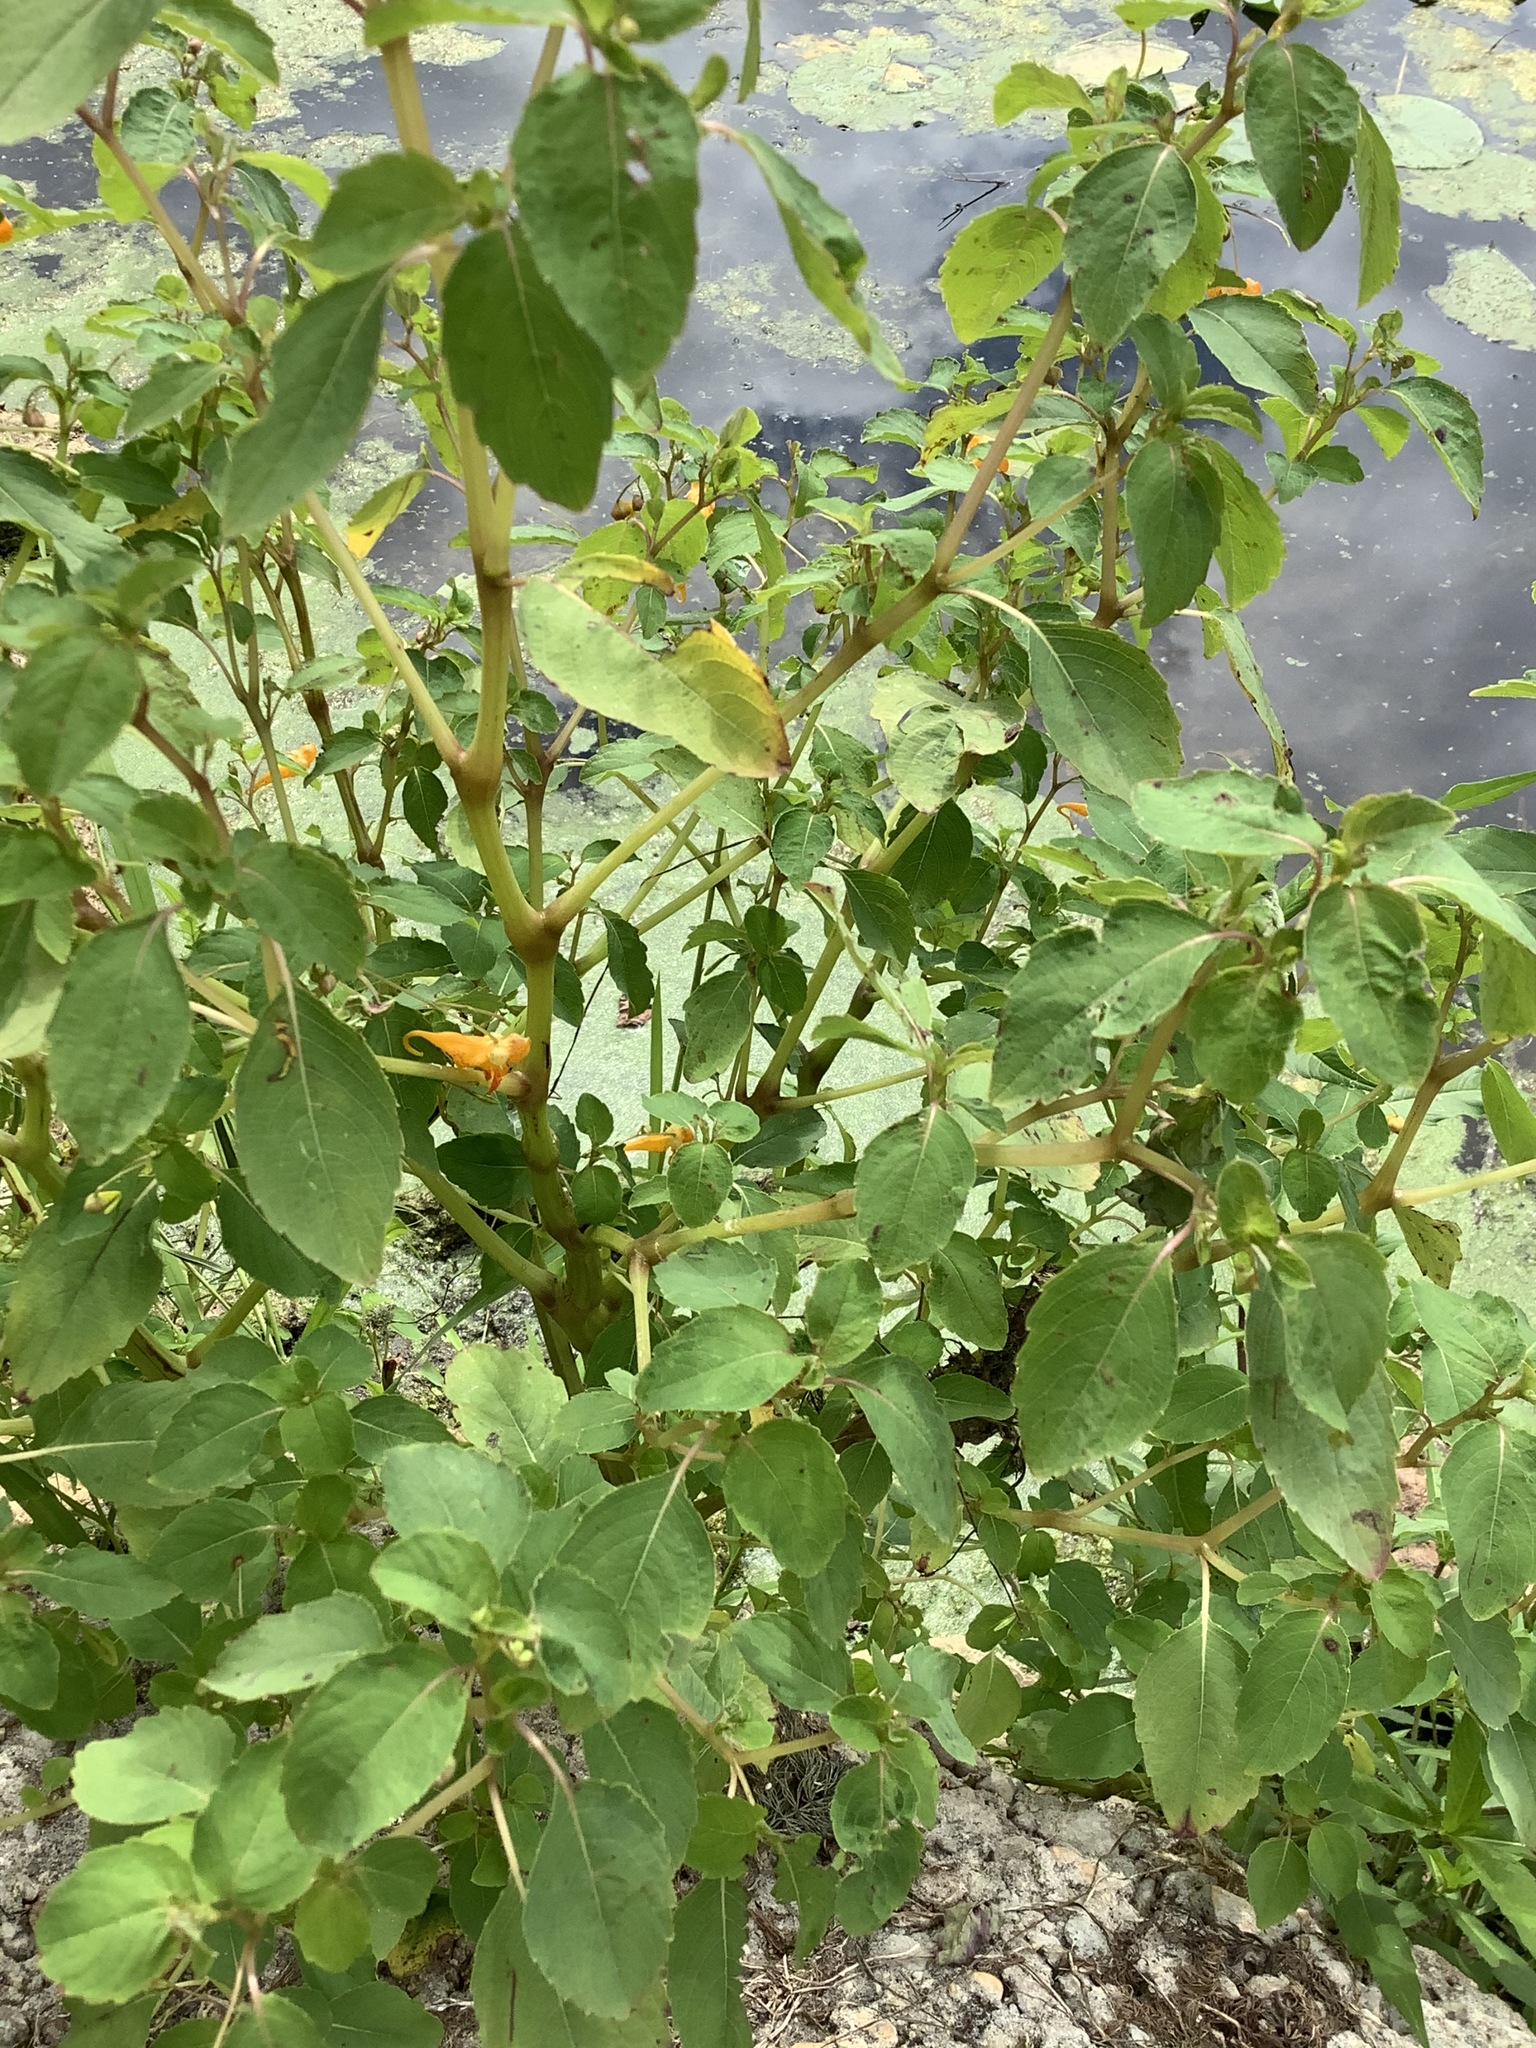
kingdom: Plantae
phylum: Tracheophyta
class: Magnoliopsida
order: Ericales
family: Balsaminaceae
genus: Impatiens
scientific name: Impatiens capensis
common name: Orange balsam
